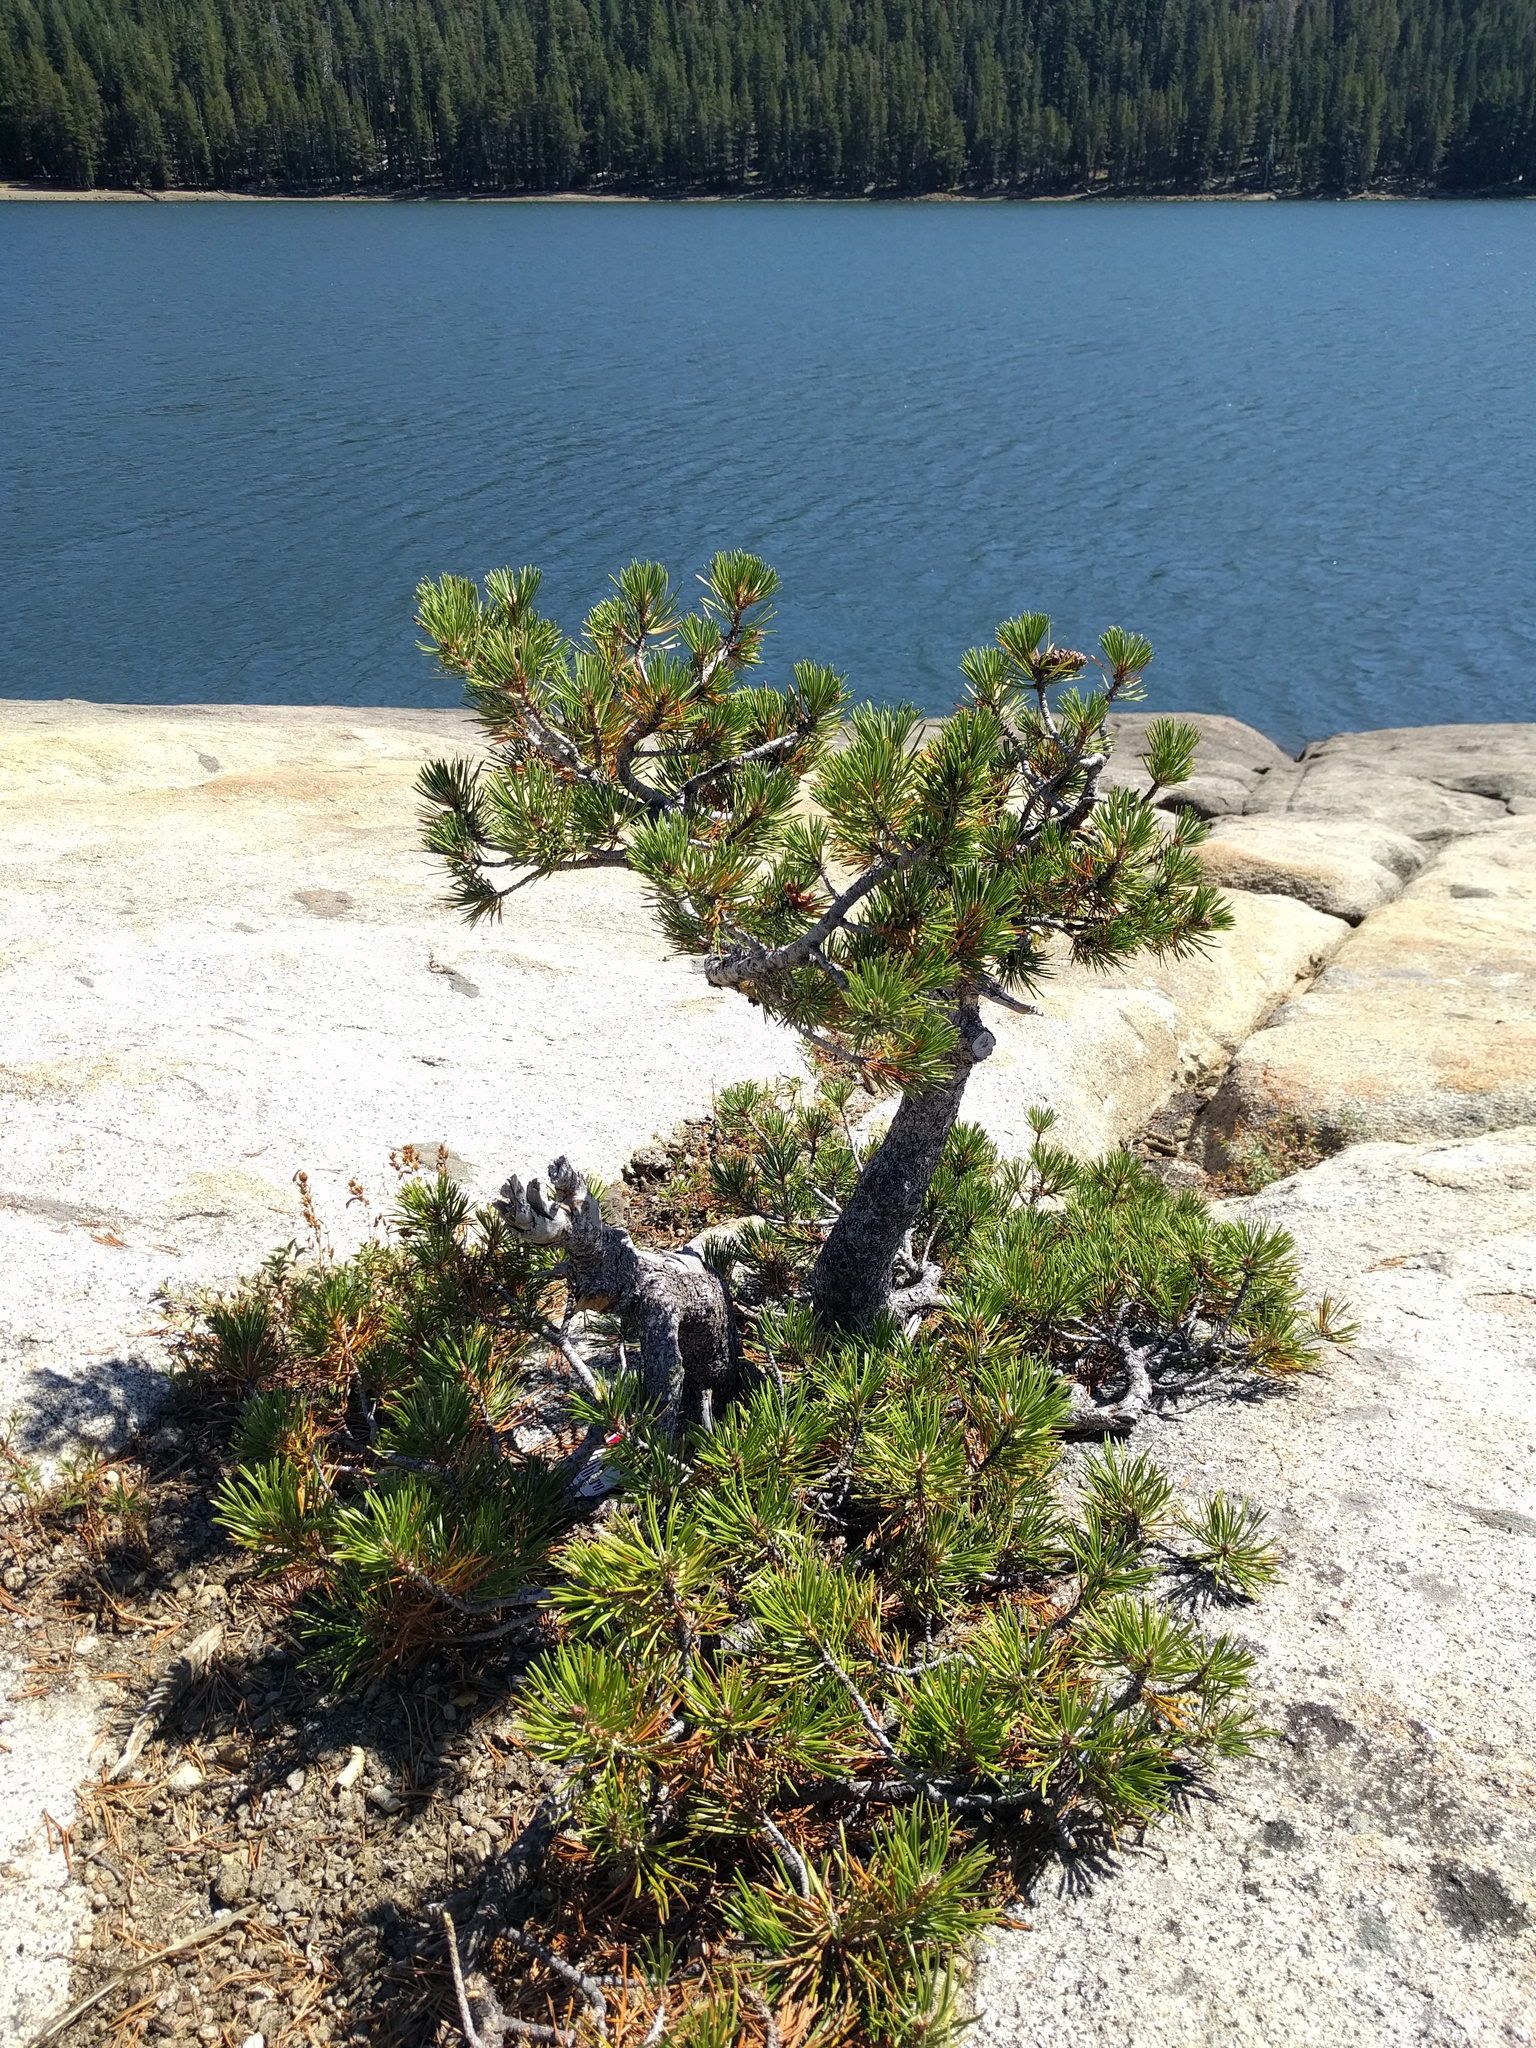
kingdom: Plantae
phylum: Tracheophyta
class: Pinopsida
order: Pinales
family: Pinaceae
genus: Pinus
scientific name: Pinus contorta
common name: Lodgepole pine
